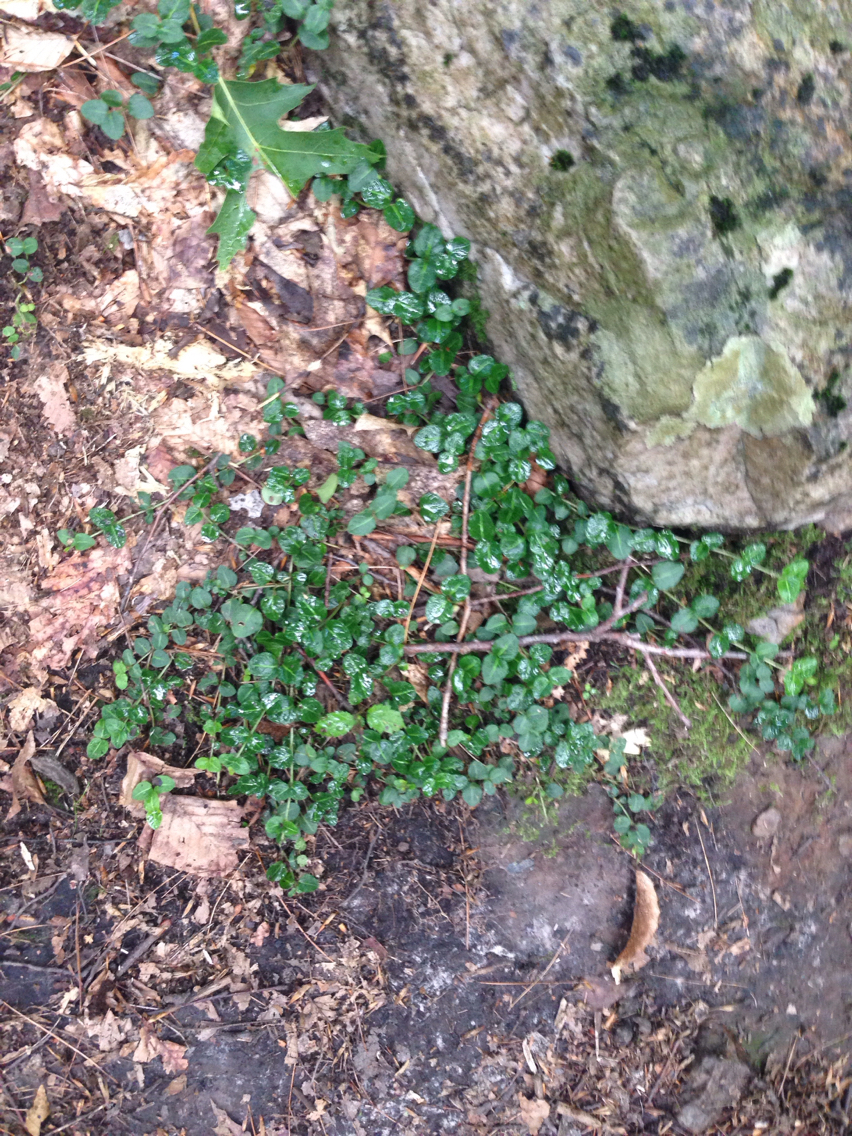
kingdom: Plantae
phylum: Tracheophyta
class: Magnoliopsida
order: Gentianales
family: Rubiaceae
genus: Mitchella
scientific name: Mitchella repens
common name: Partridge-berry
